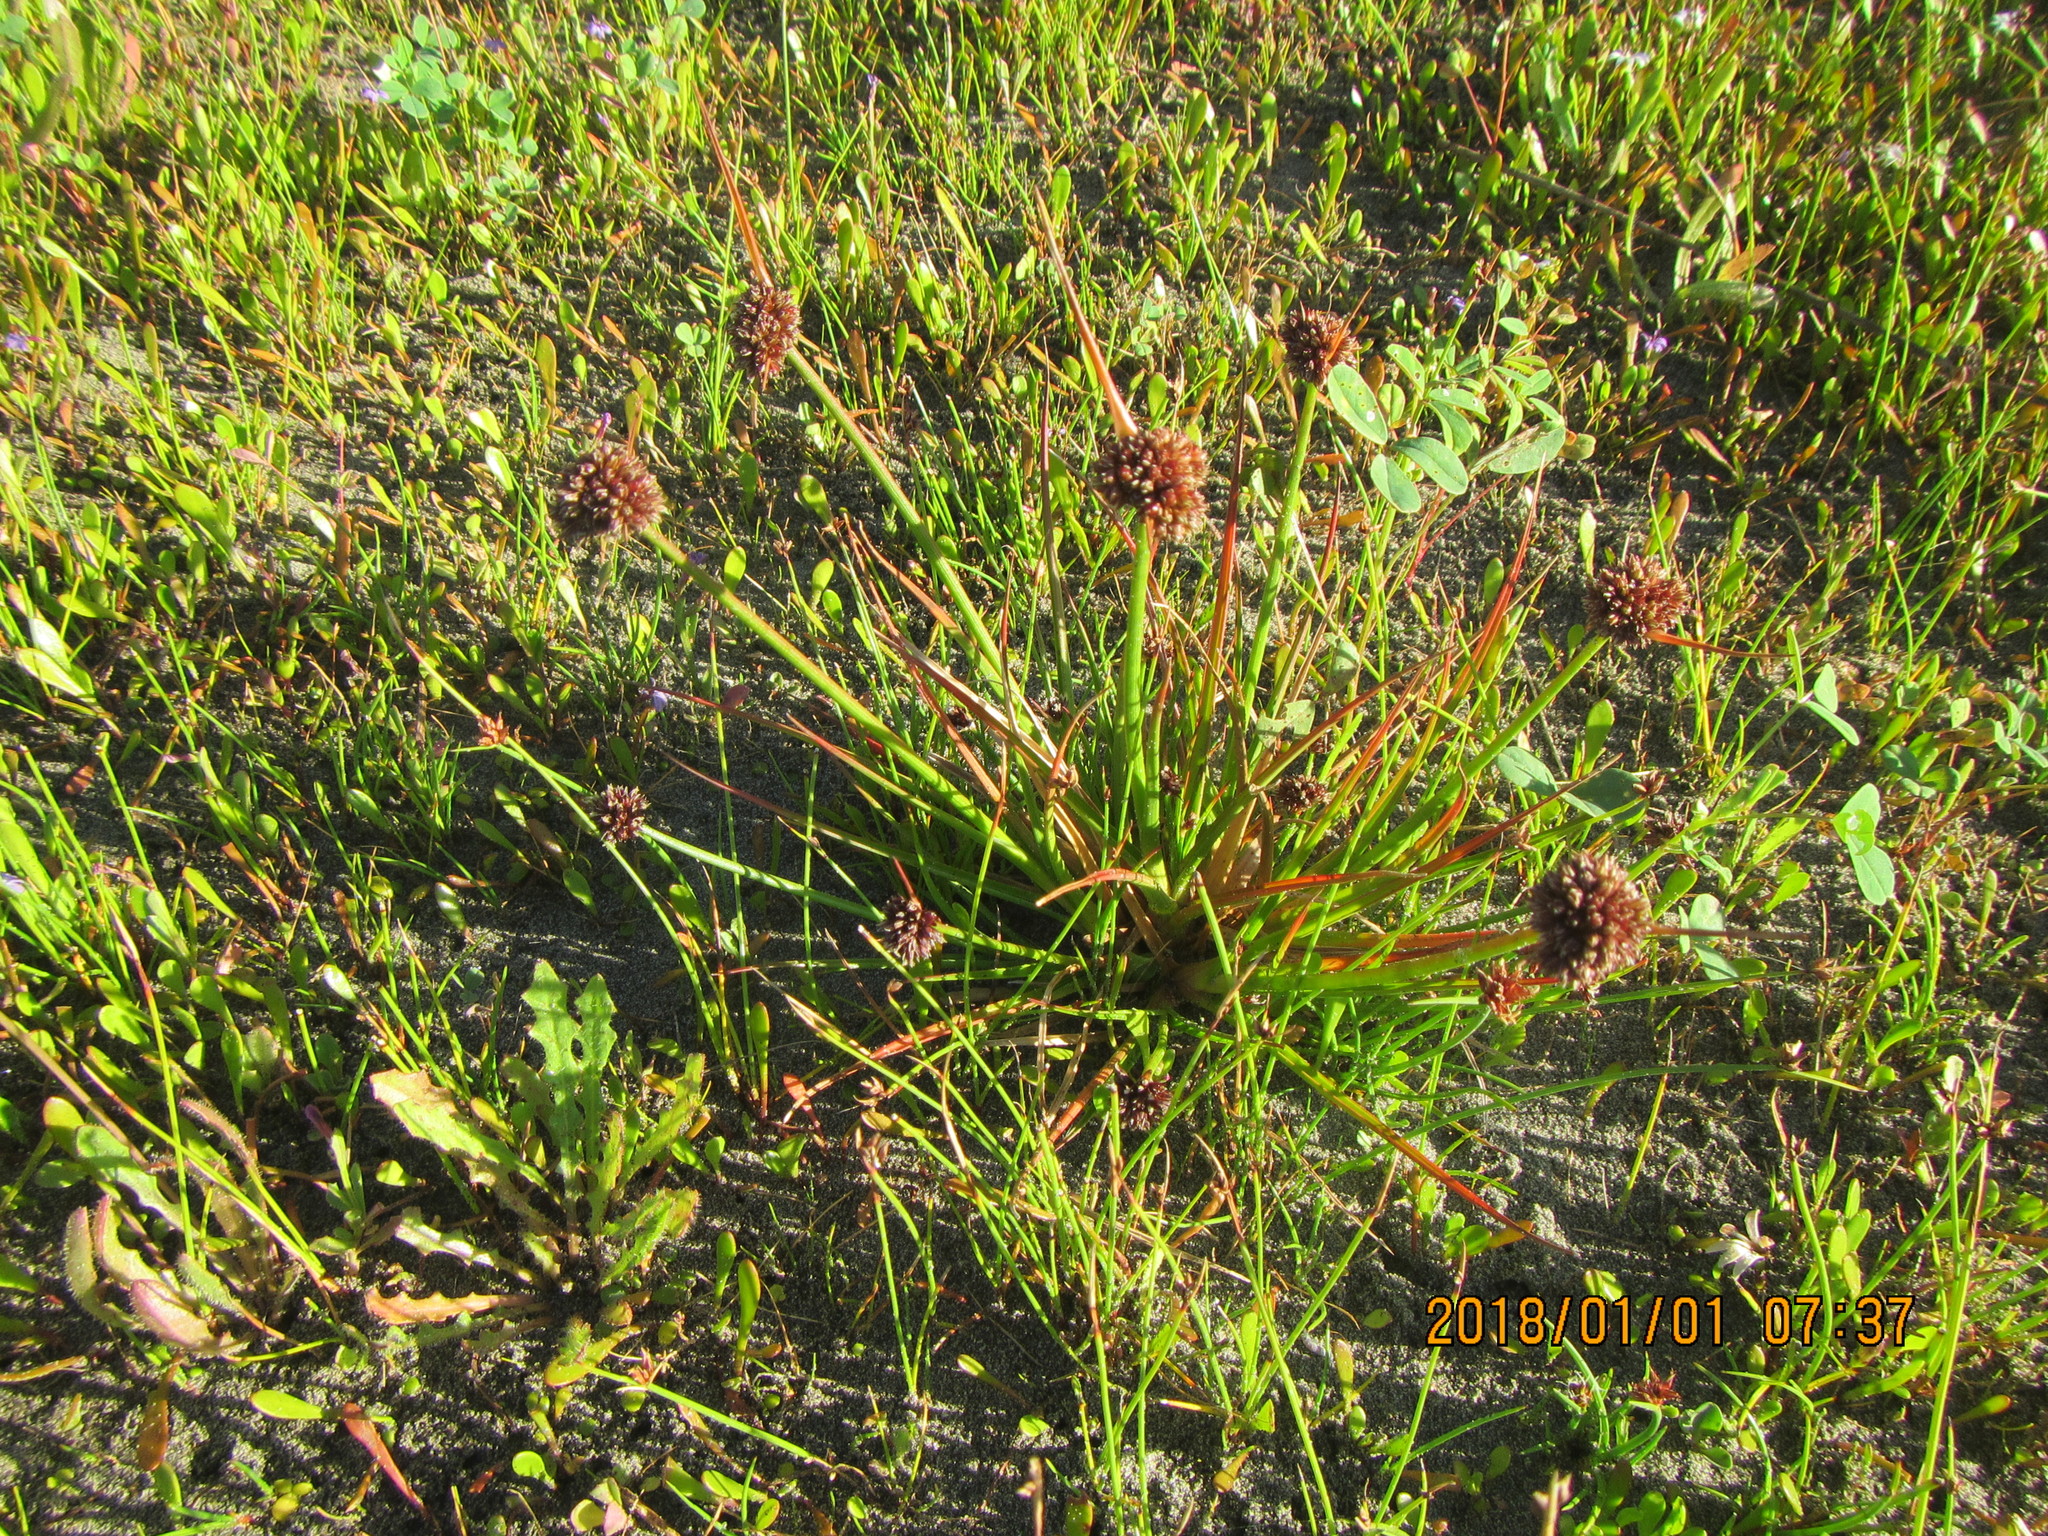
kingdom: Plantae
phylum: Tracheophyta
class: Liliopsida
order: Poales
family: Juncaceae
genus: Juncus
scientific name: Juncus caespiticius
